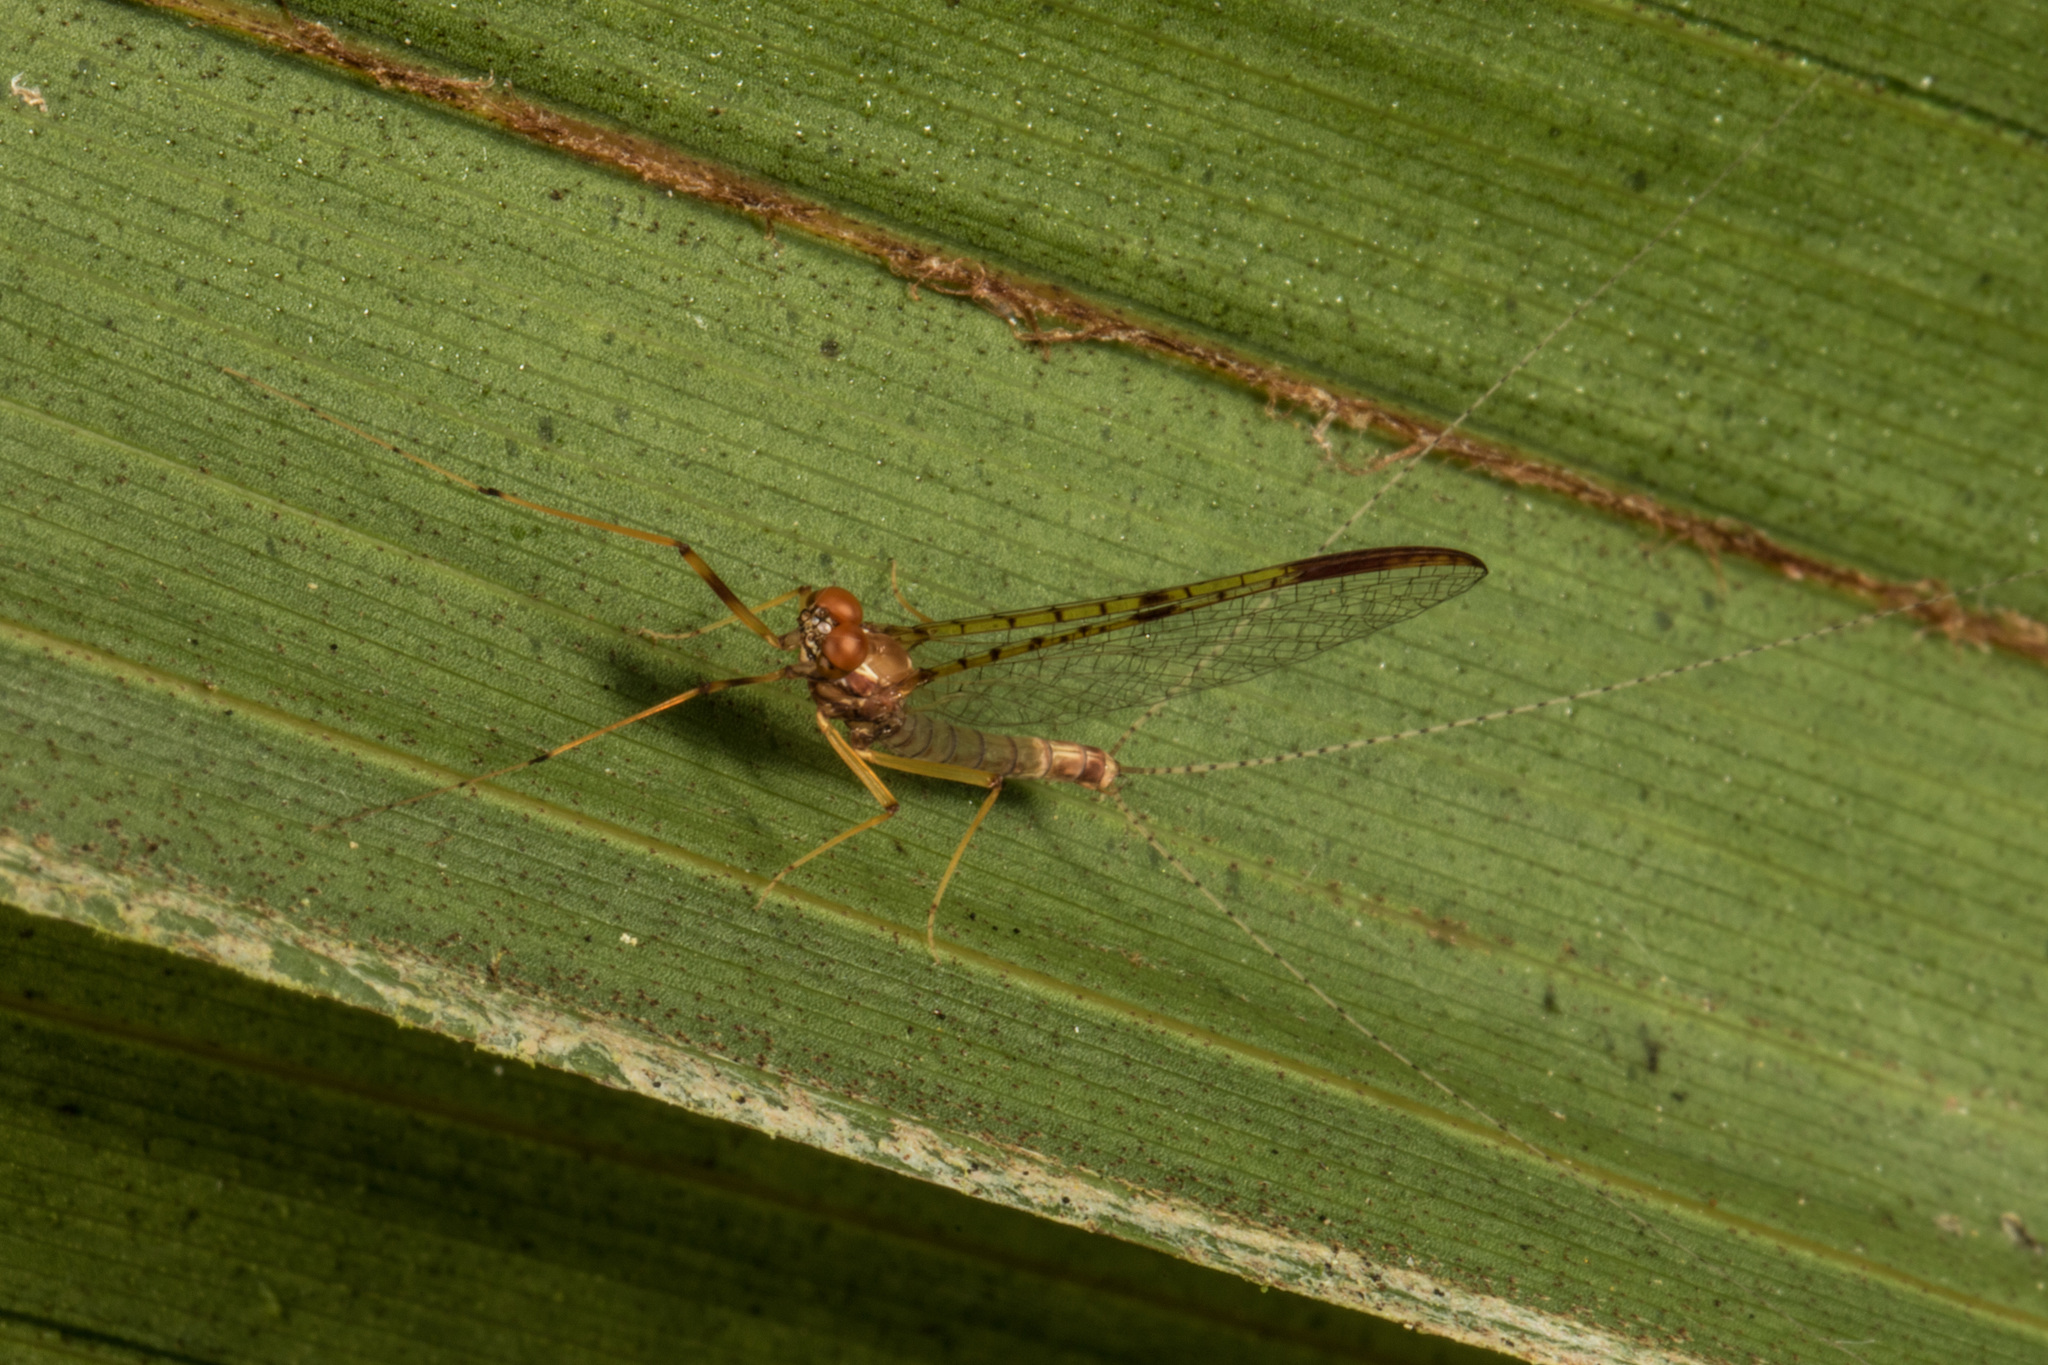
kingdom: Animalia
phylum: Arthropoda
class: Insecta
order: Ephemeroptera
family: Leptophlebiidae
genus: Zephlebia
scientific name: Zephlebia borealis
